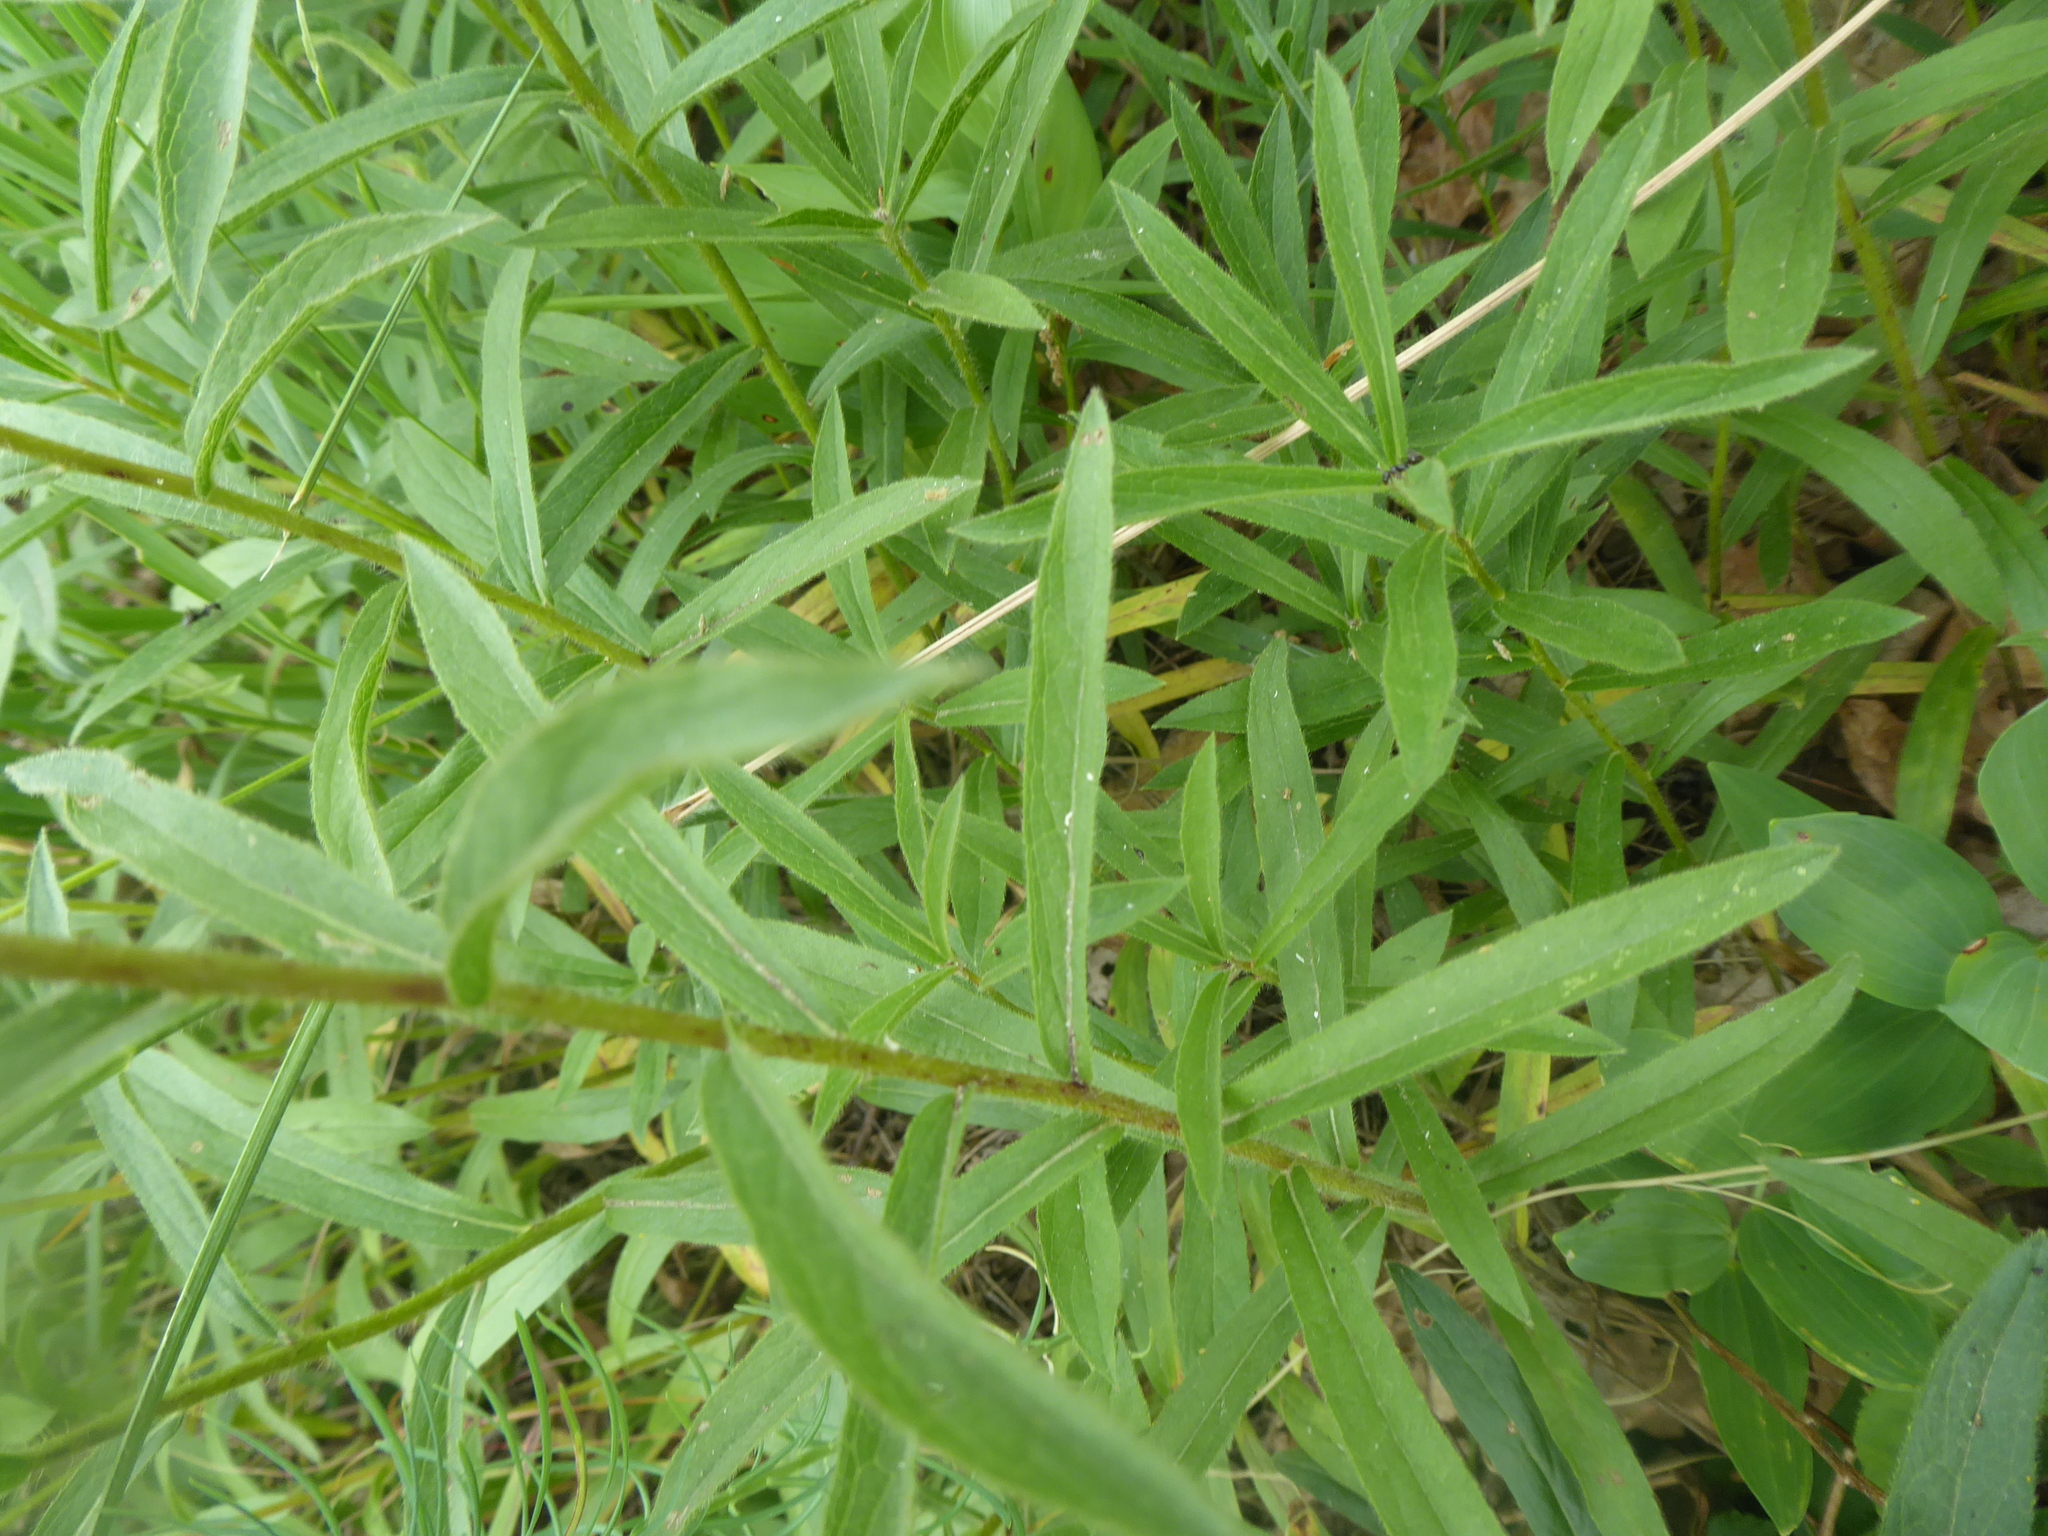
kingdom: Plantae
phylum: Tracheophyta
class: Magnoliopsida
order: Asterales
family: Asteraceae
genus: Pentanema
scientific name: Pentanema hirtum
